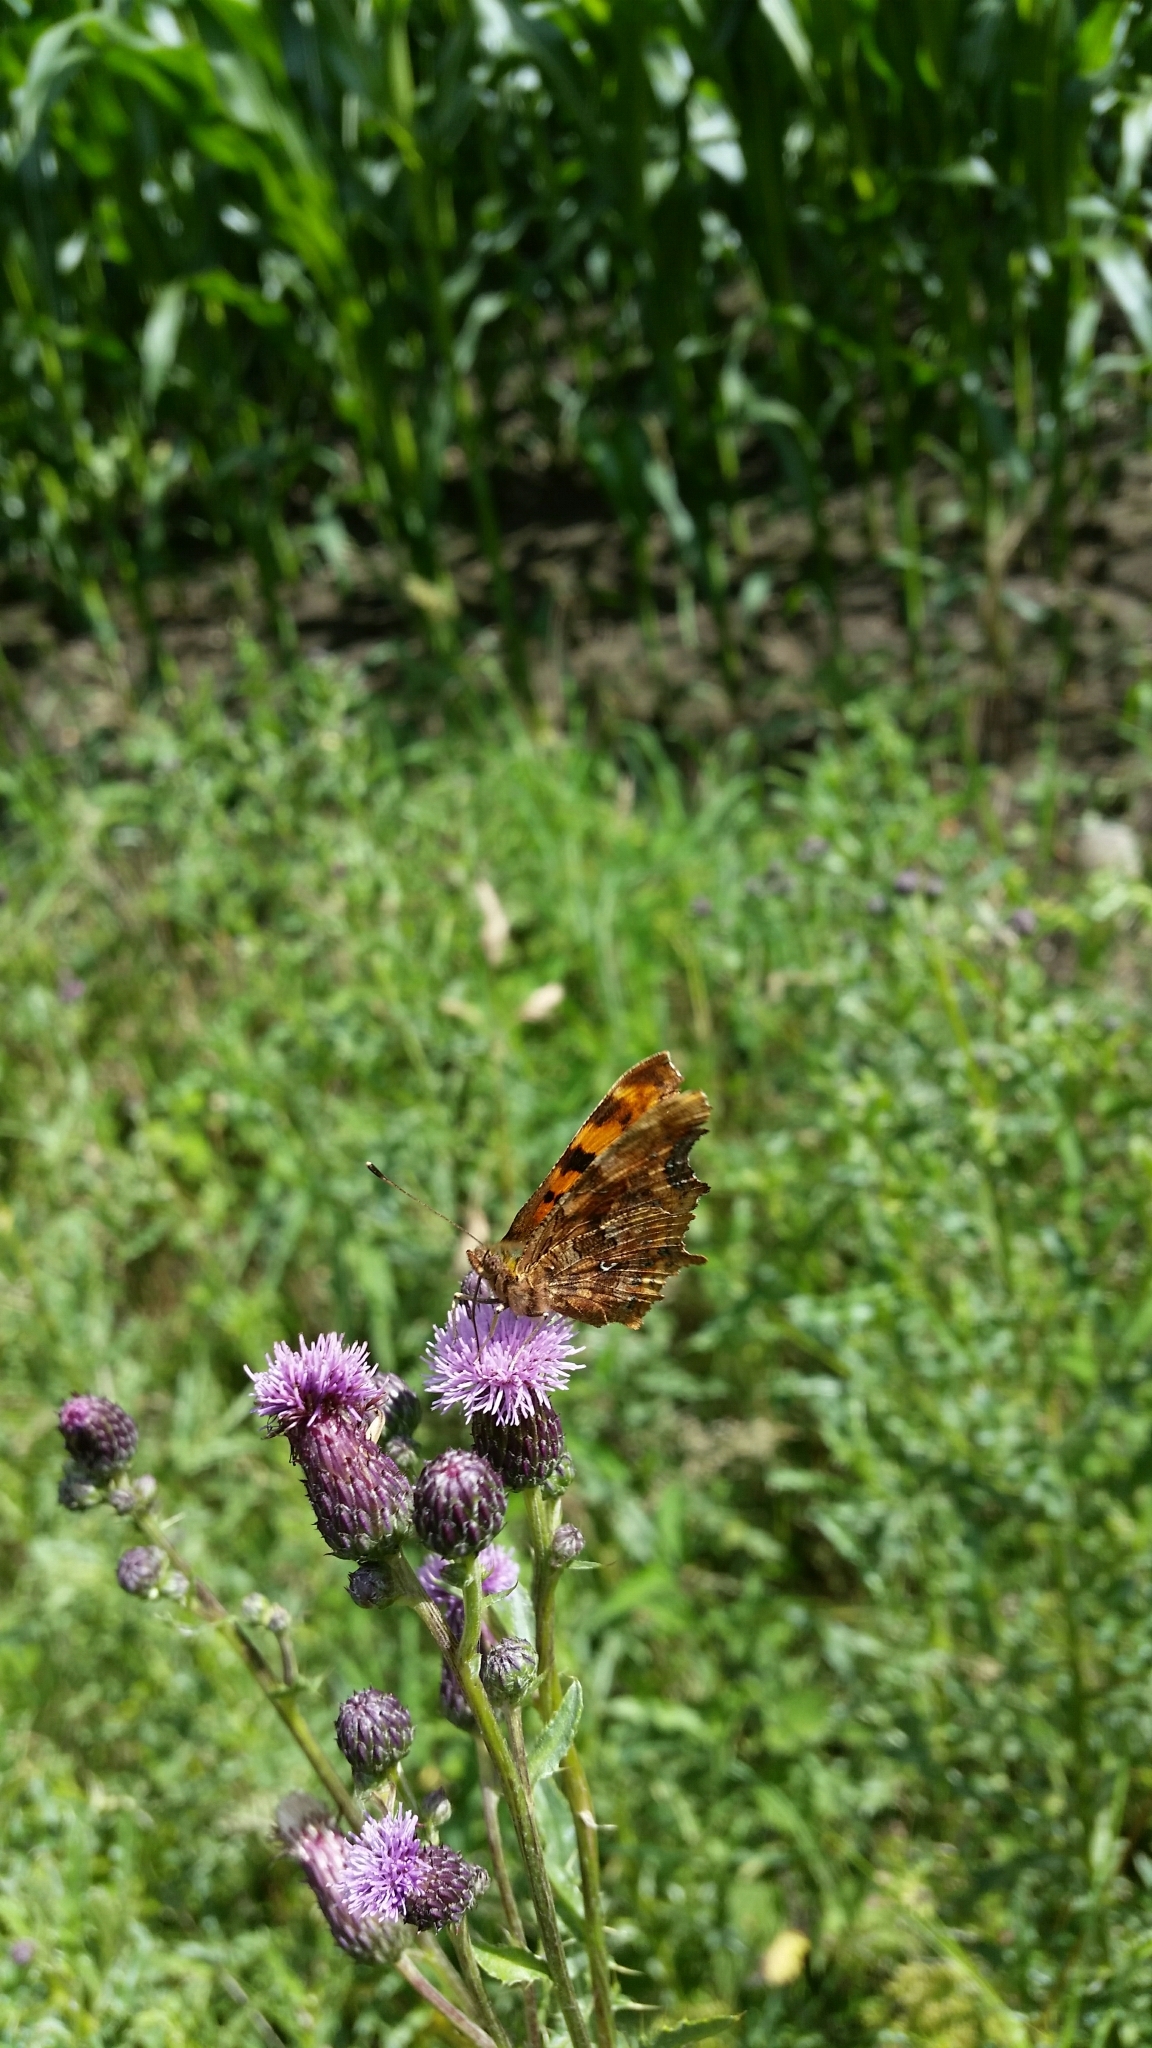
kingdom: Animalia
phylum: Arthropoda
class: Insecta
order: Lepidoptera
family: Nymphalidae
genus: Polygonia
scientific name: Polygonia c-album
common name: Comma
